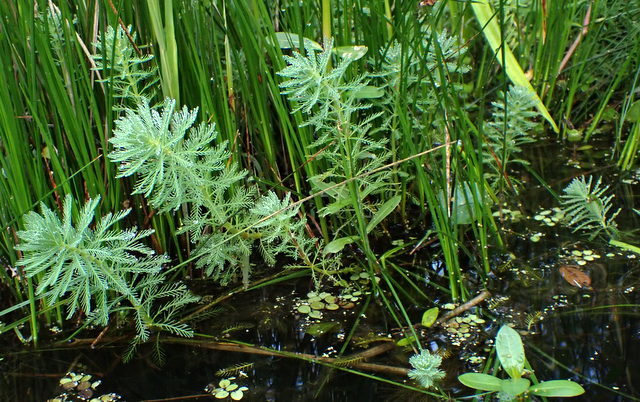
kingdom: Plantae
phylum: Tracheophyta
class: Magnoliopsida
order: Saxifragales
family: Haloragaceae
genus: Myriophyllum
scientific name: Myriophyllum aquaticum
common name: Parrot's feather
